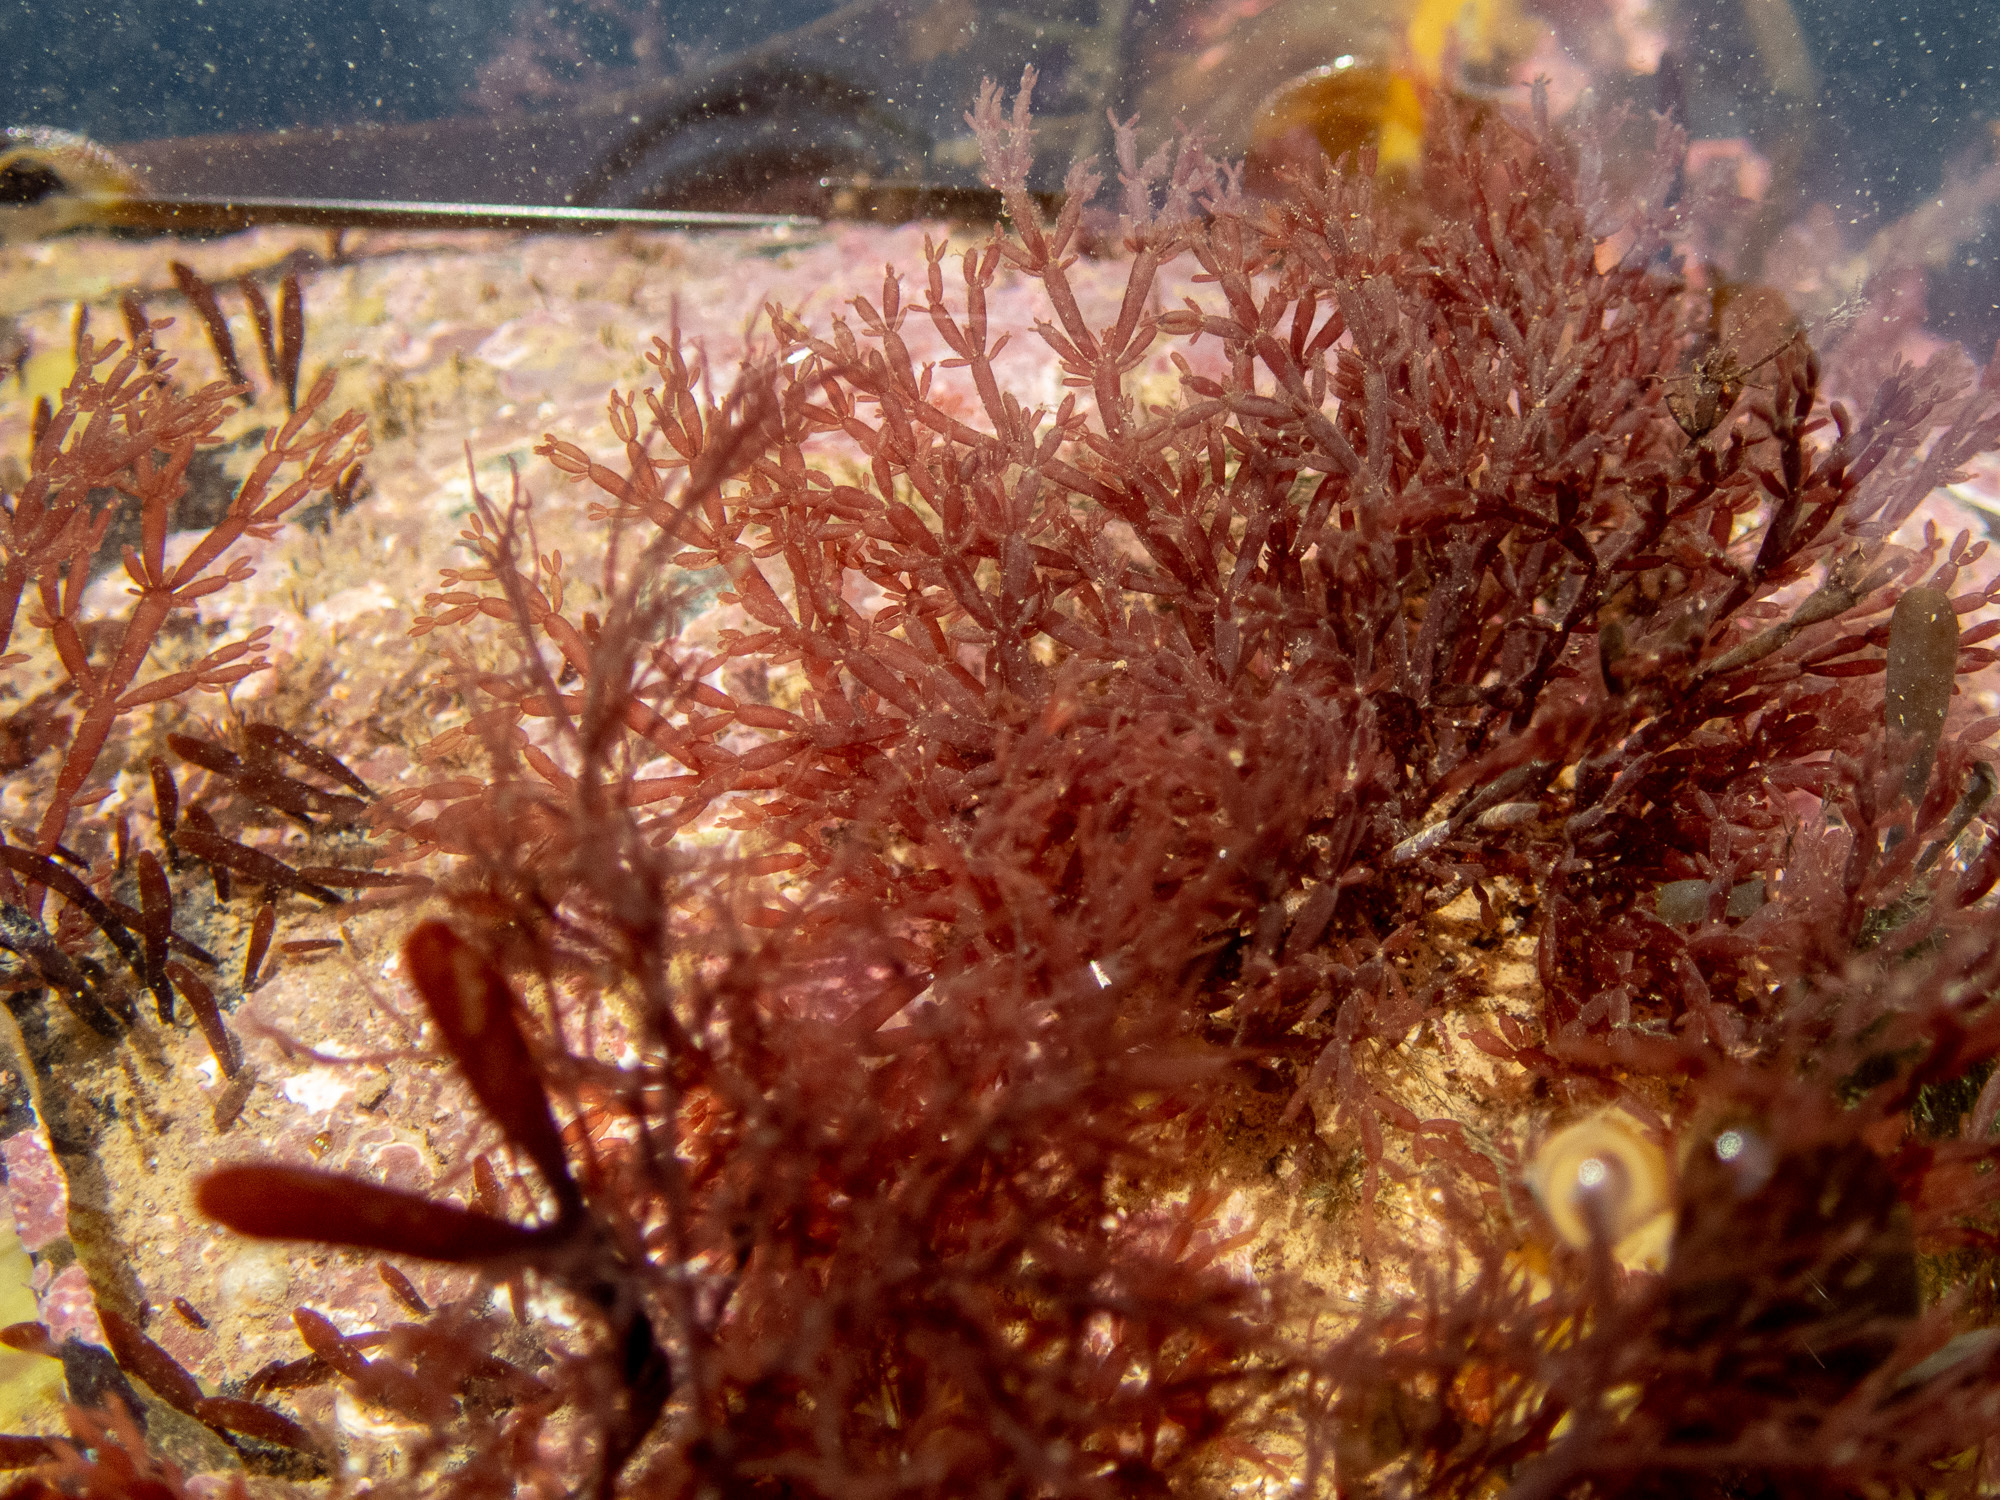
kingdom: Plantae
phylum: Rhodophyta
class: Florideophyceae
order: Rhodymeniales
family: Lomentariaceae
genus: Lomentaria
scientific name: Lomentaria articulata
